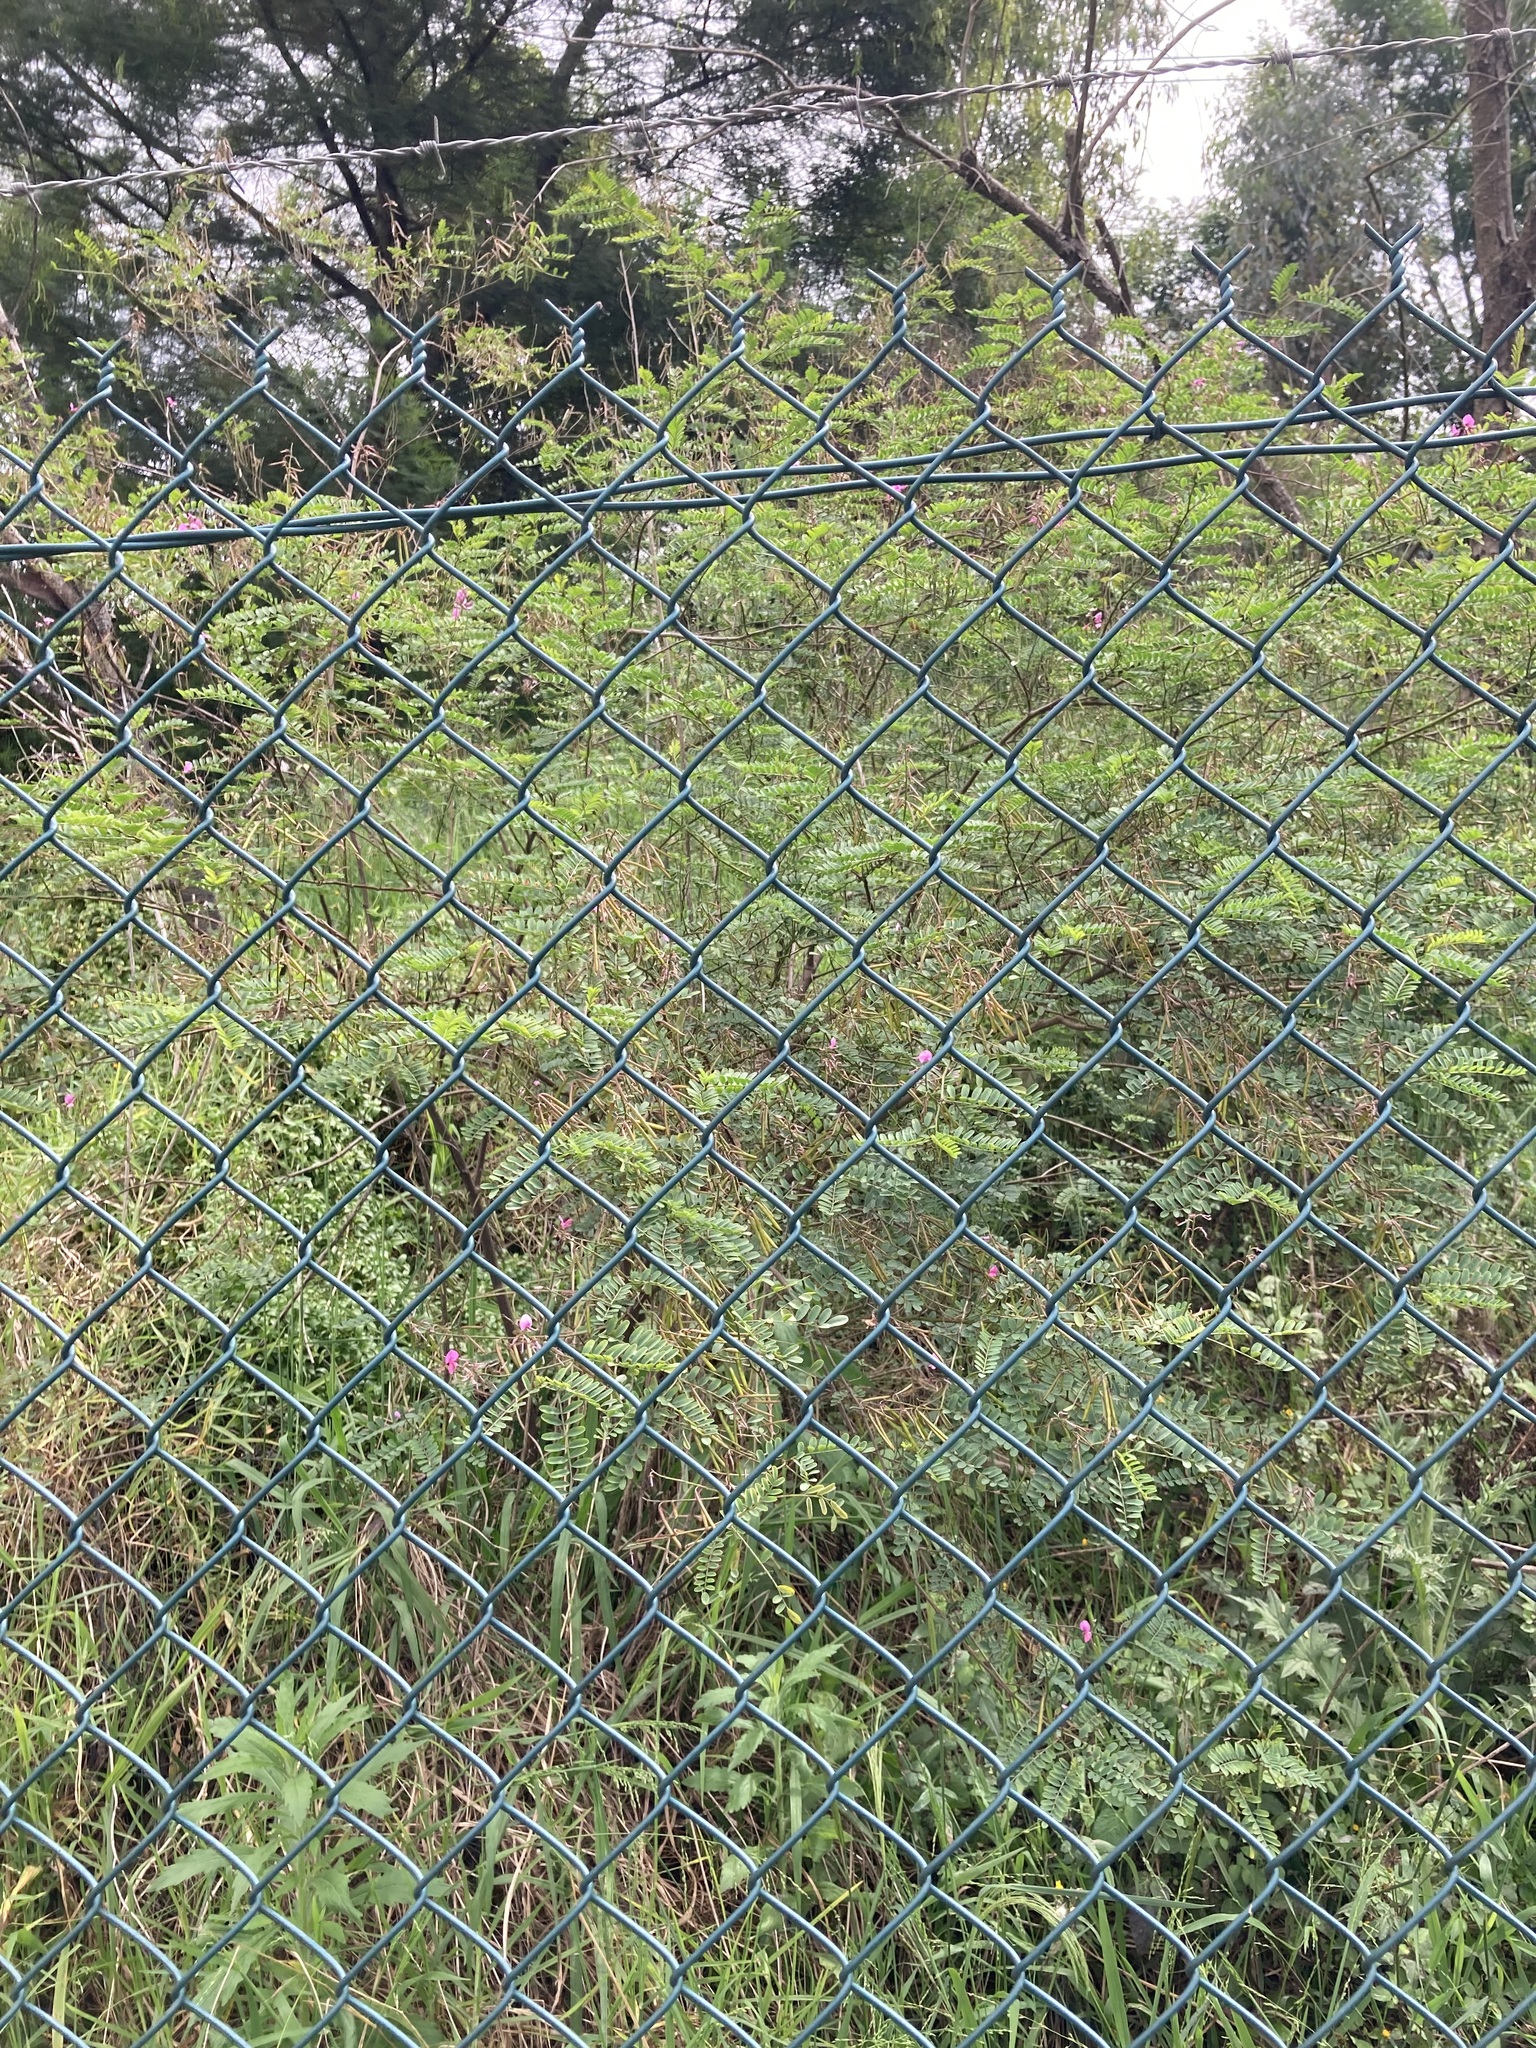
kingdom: Plantae
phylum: Tracheophyta
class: Magnoliopsida
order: Fabales
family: Fabaceae
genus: Indigofera
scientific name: Indigofera australis
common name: Australian indigo
